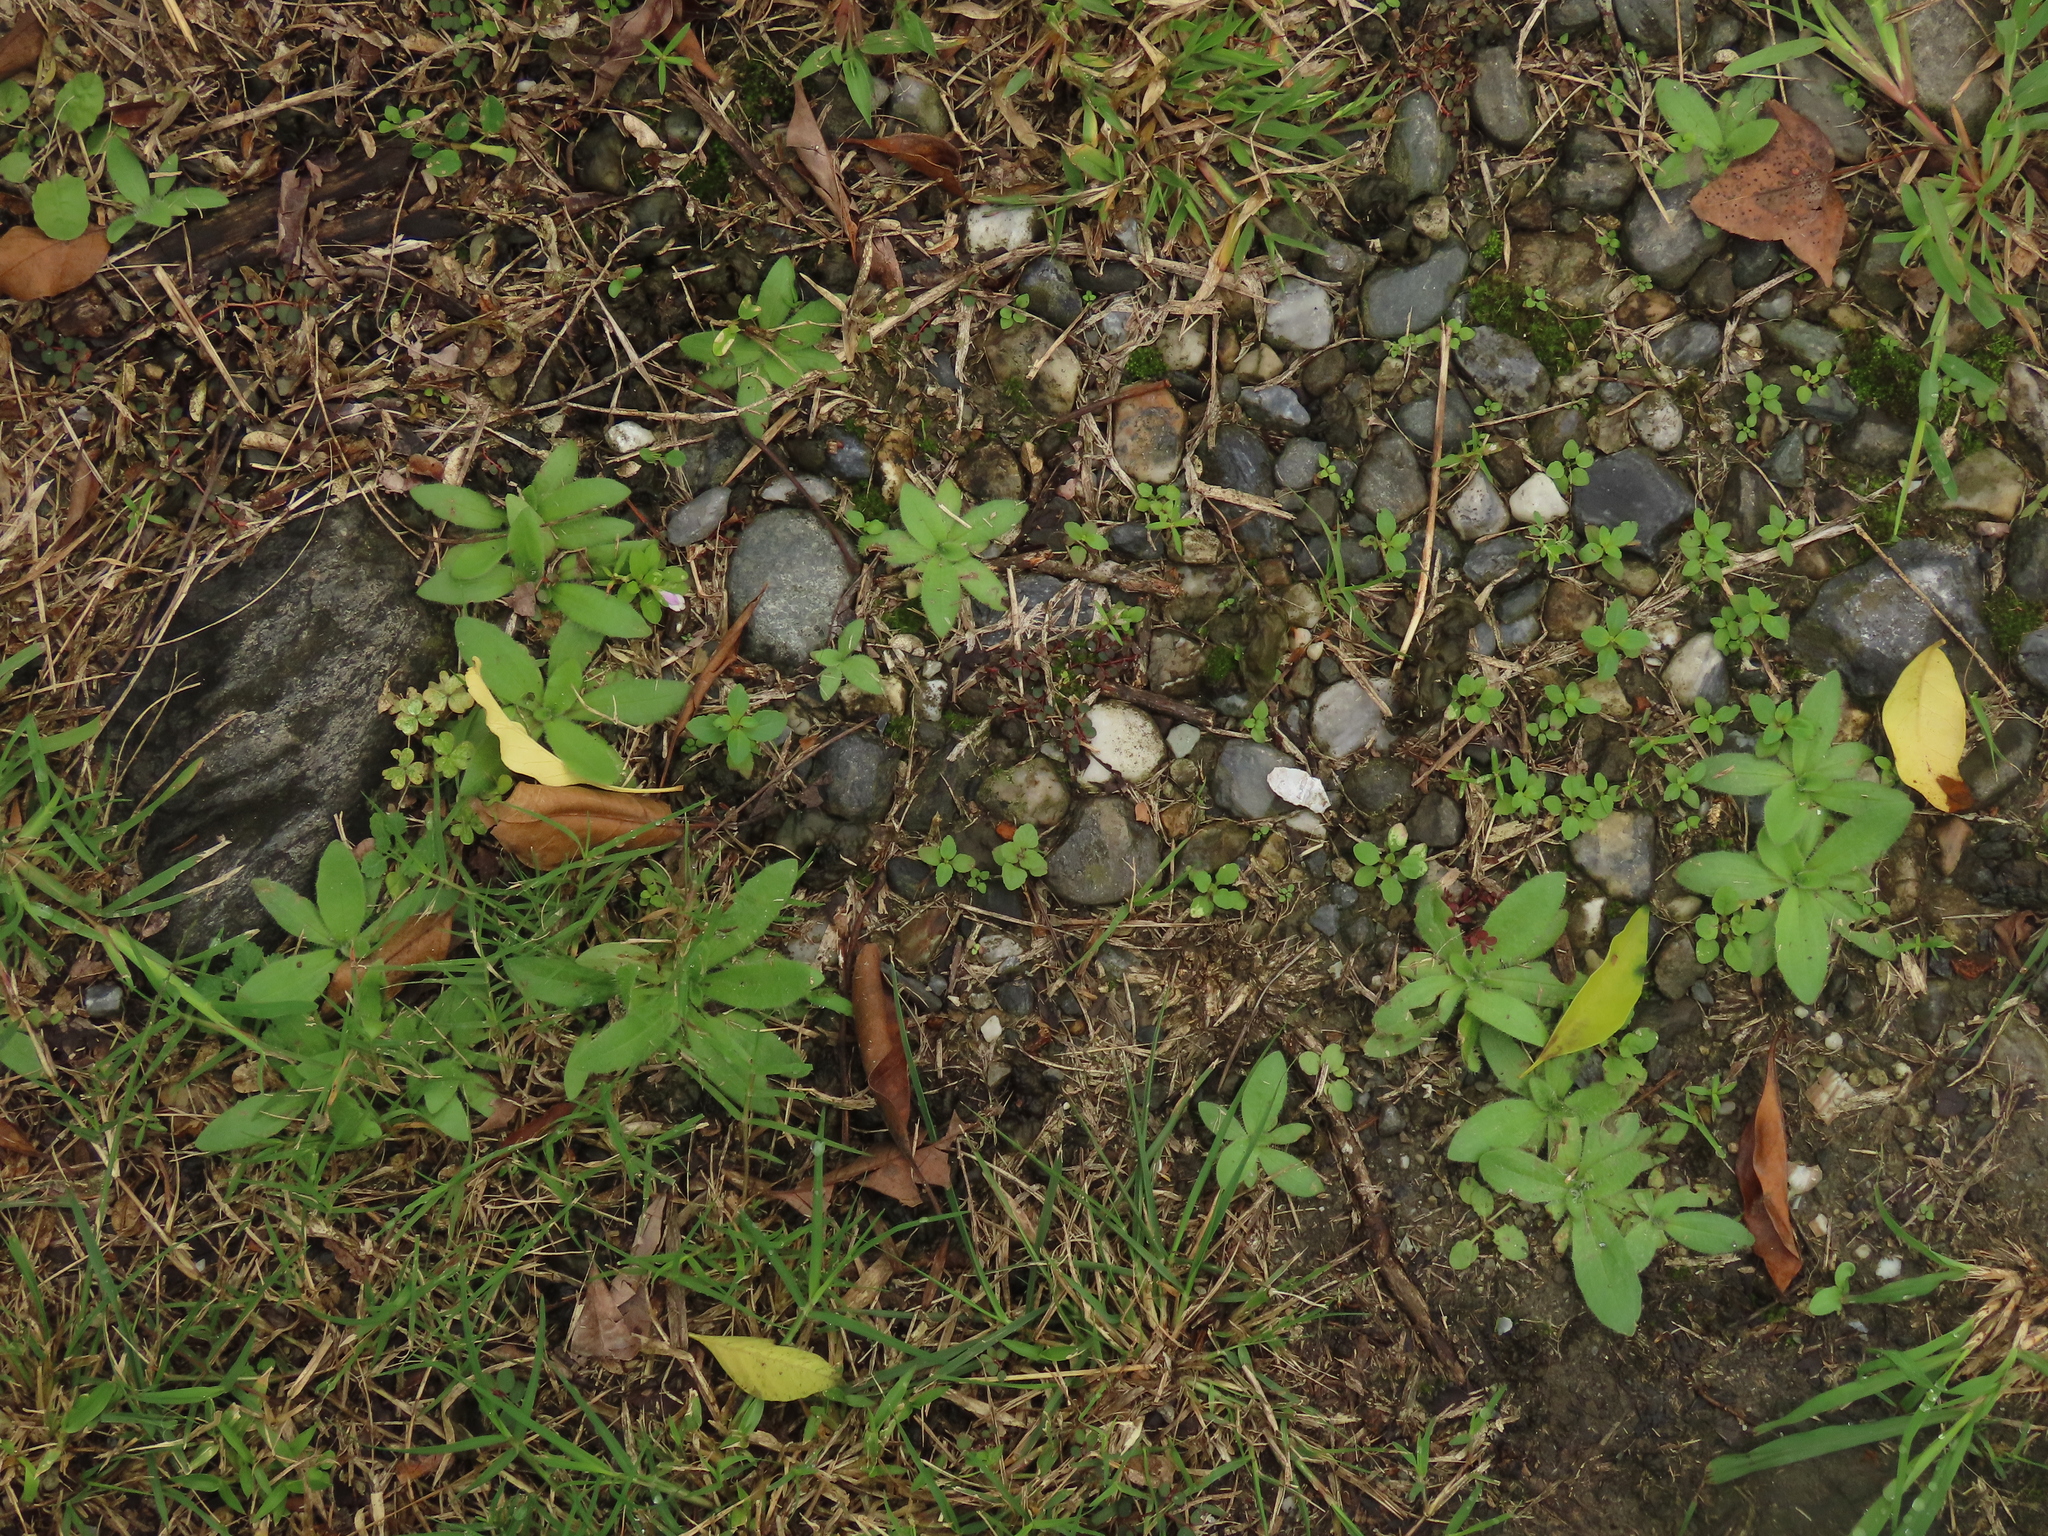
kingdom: Plantae
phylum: Tracheophyta
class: Magnoliopsida
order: Lamiales
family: Plantaginaceae
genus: Plantago
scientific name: Plantago virginica
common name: Hoary plantain
